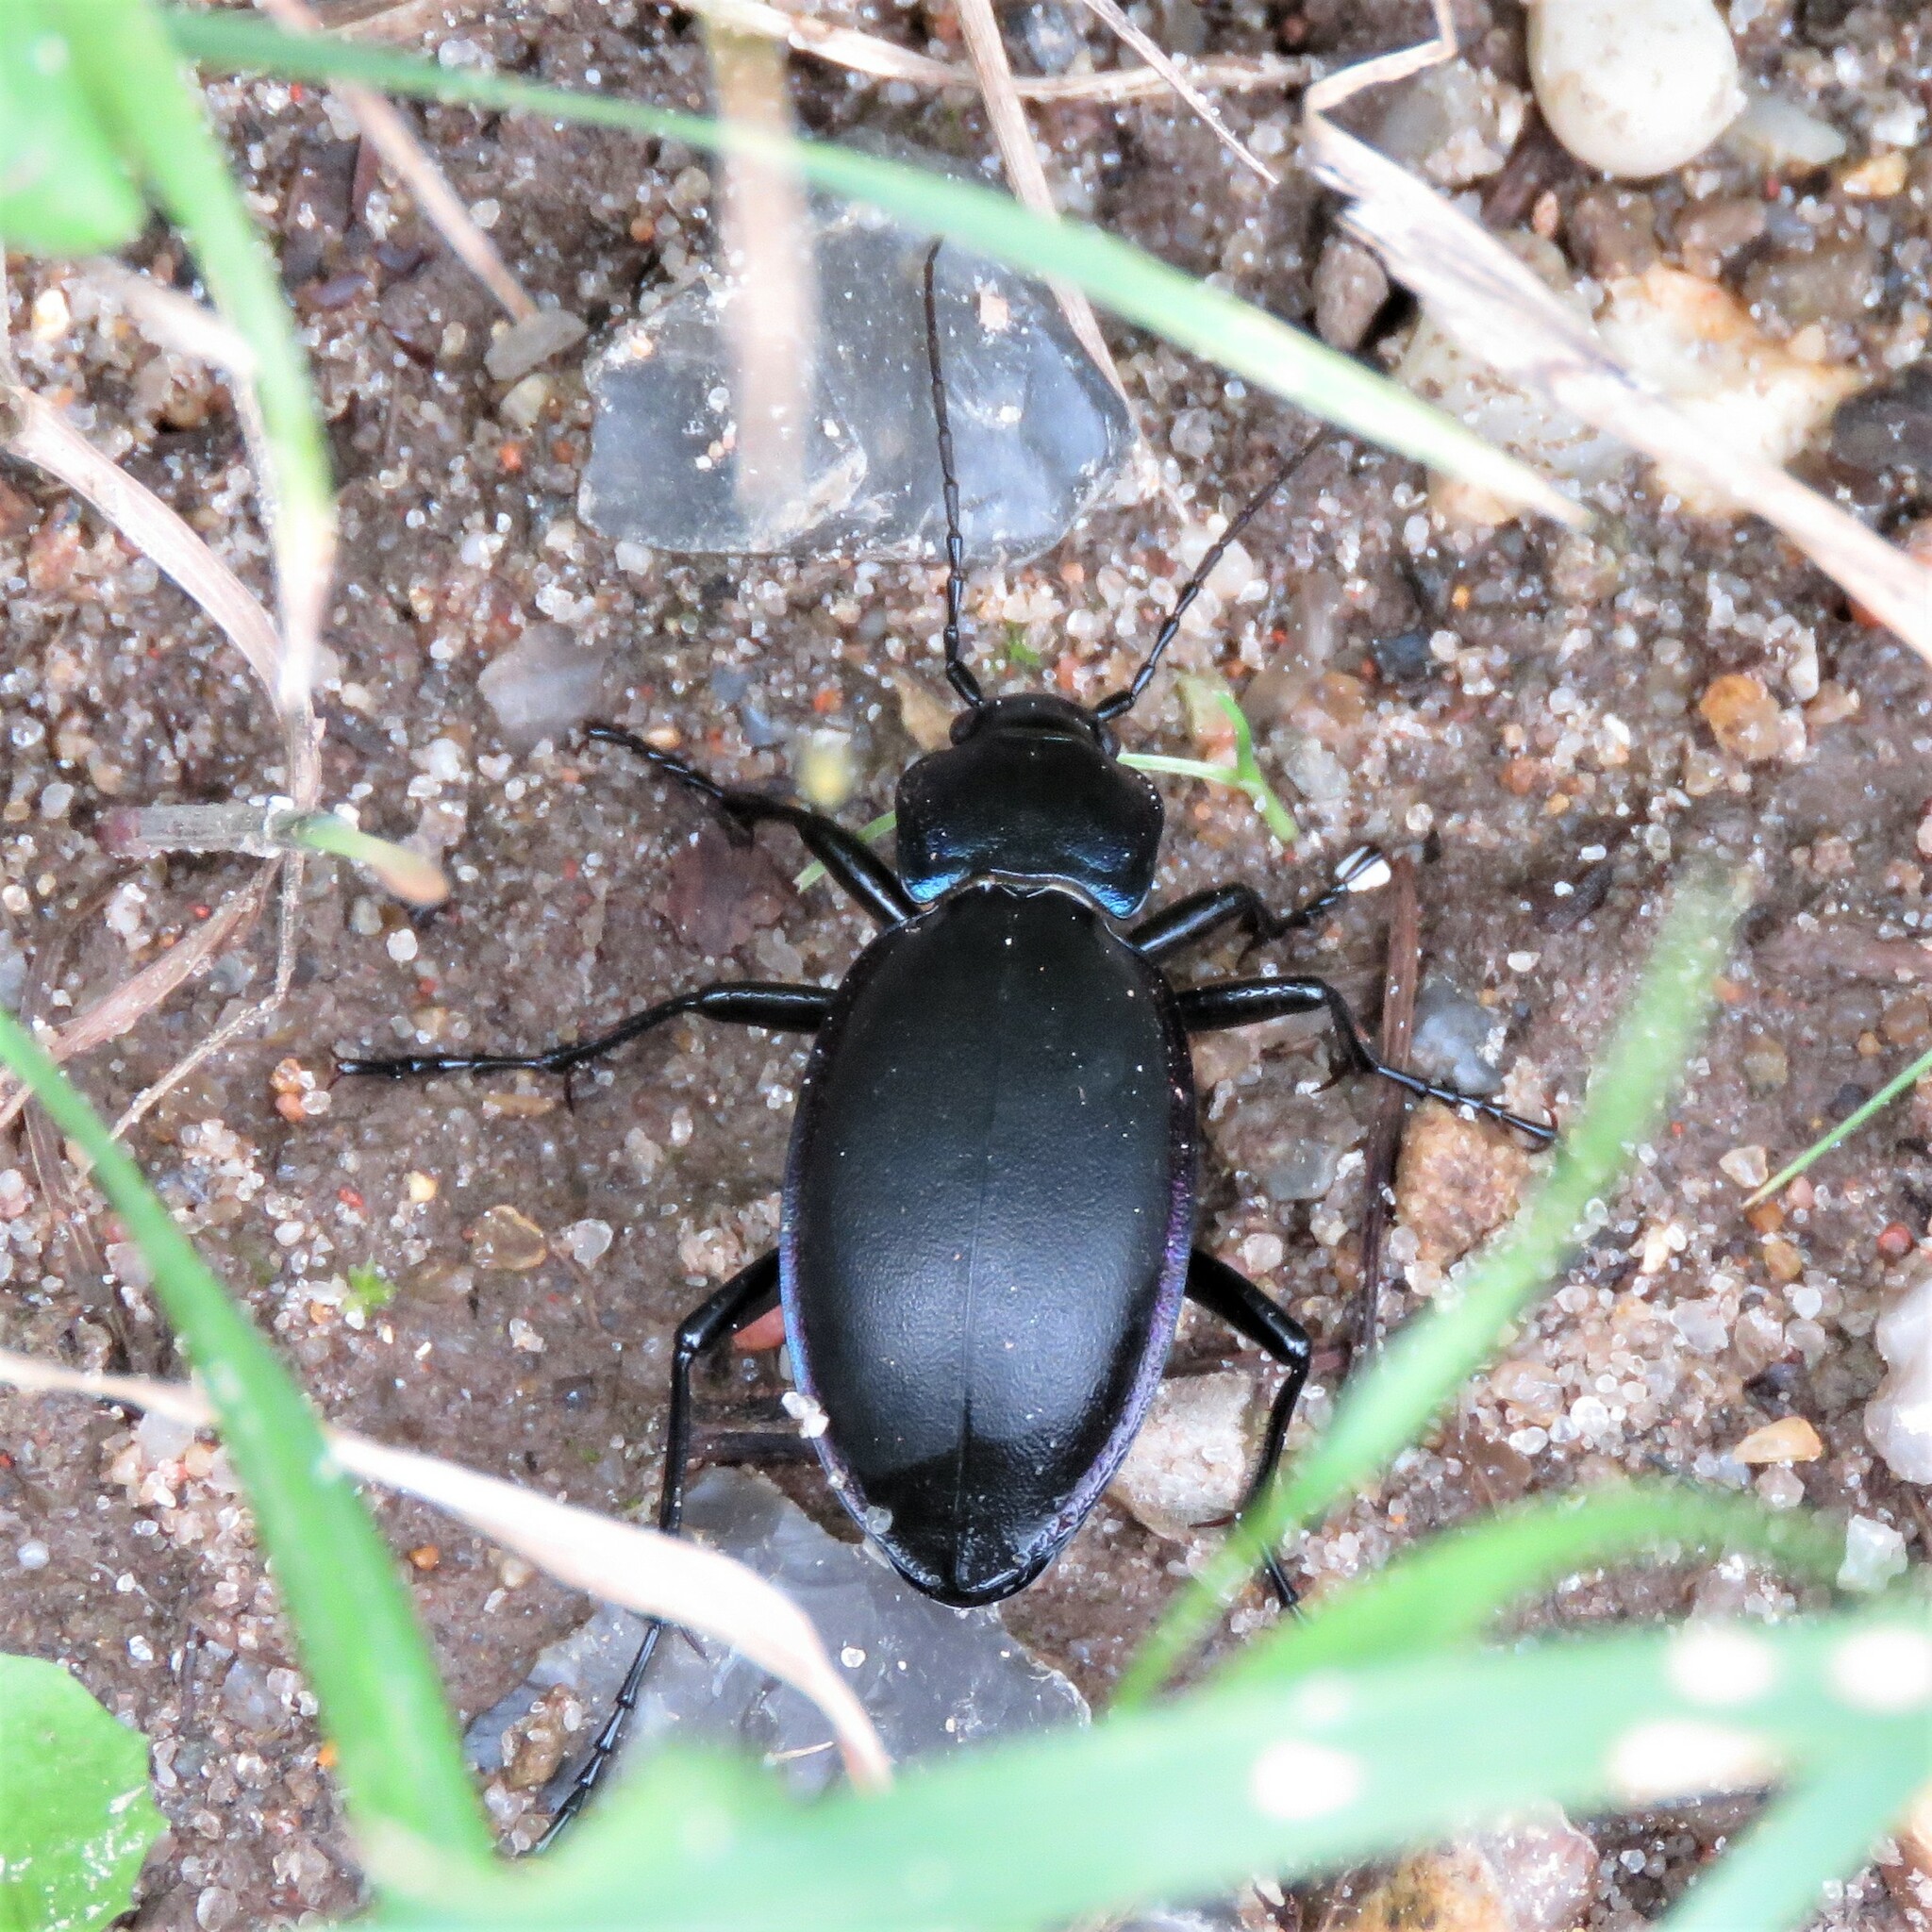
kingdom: Animalia
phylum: Arthropoda
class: Insecta
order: Coleoptera
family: Carabidae
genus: Carabus
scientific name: Carabus violaceus
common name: Violet ground beetle
